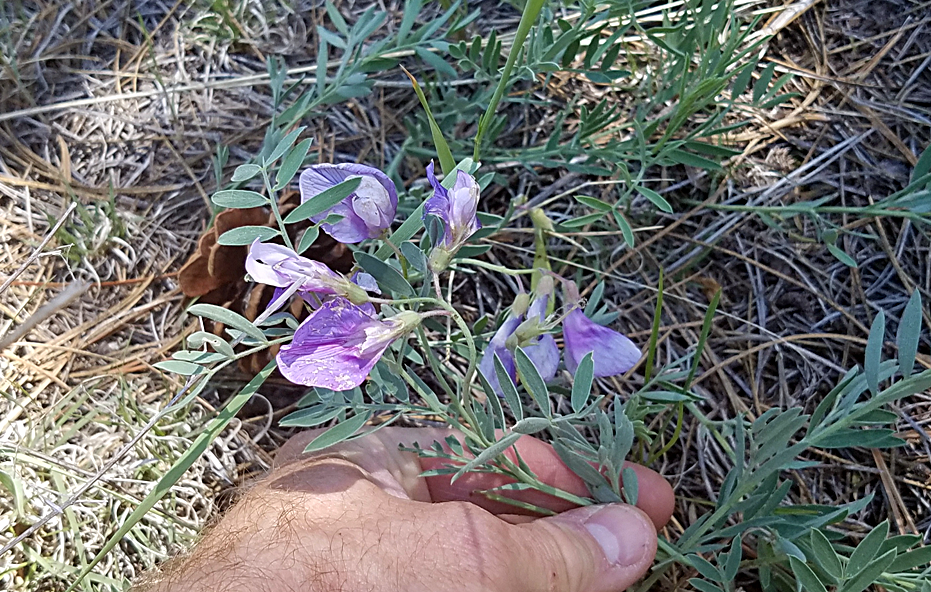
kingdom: Plantae
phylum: Tracheophyta
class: Magnoliopsida
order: Fabales
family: Fabaceae
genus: Lathyrus
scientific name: Lathyrus
